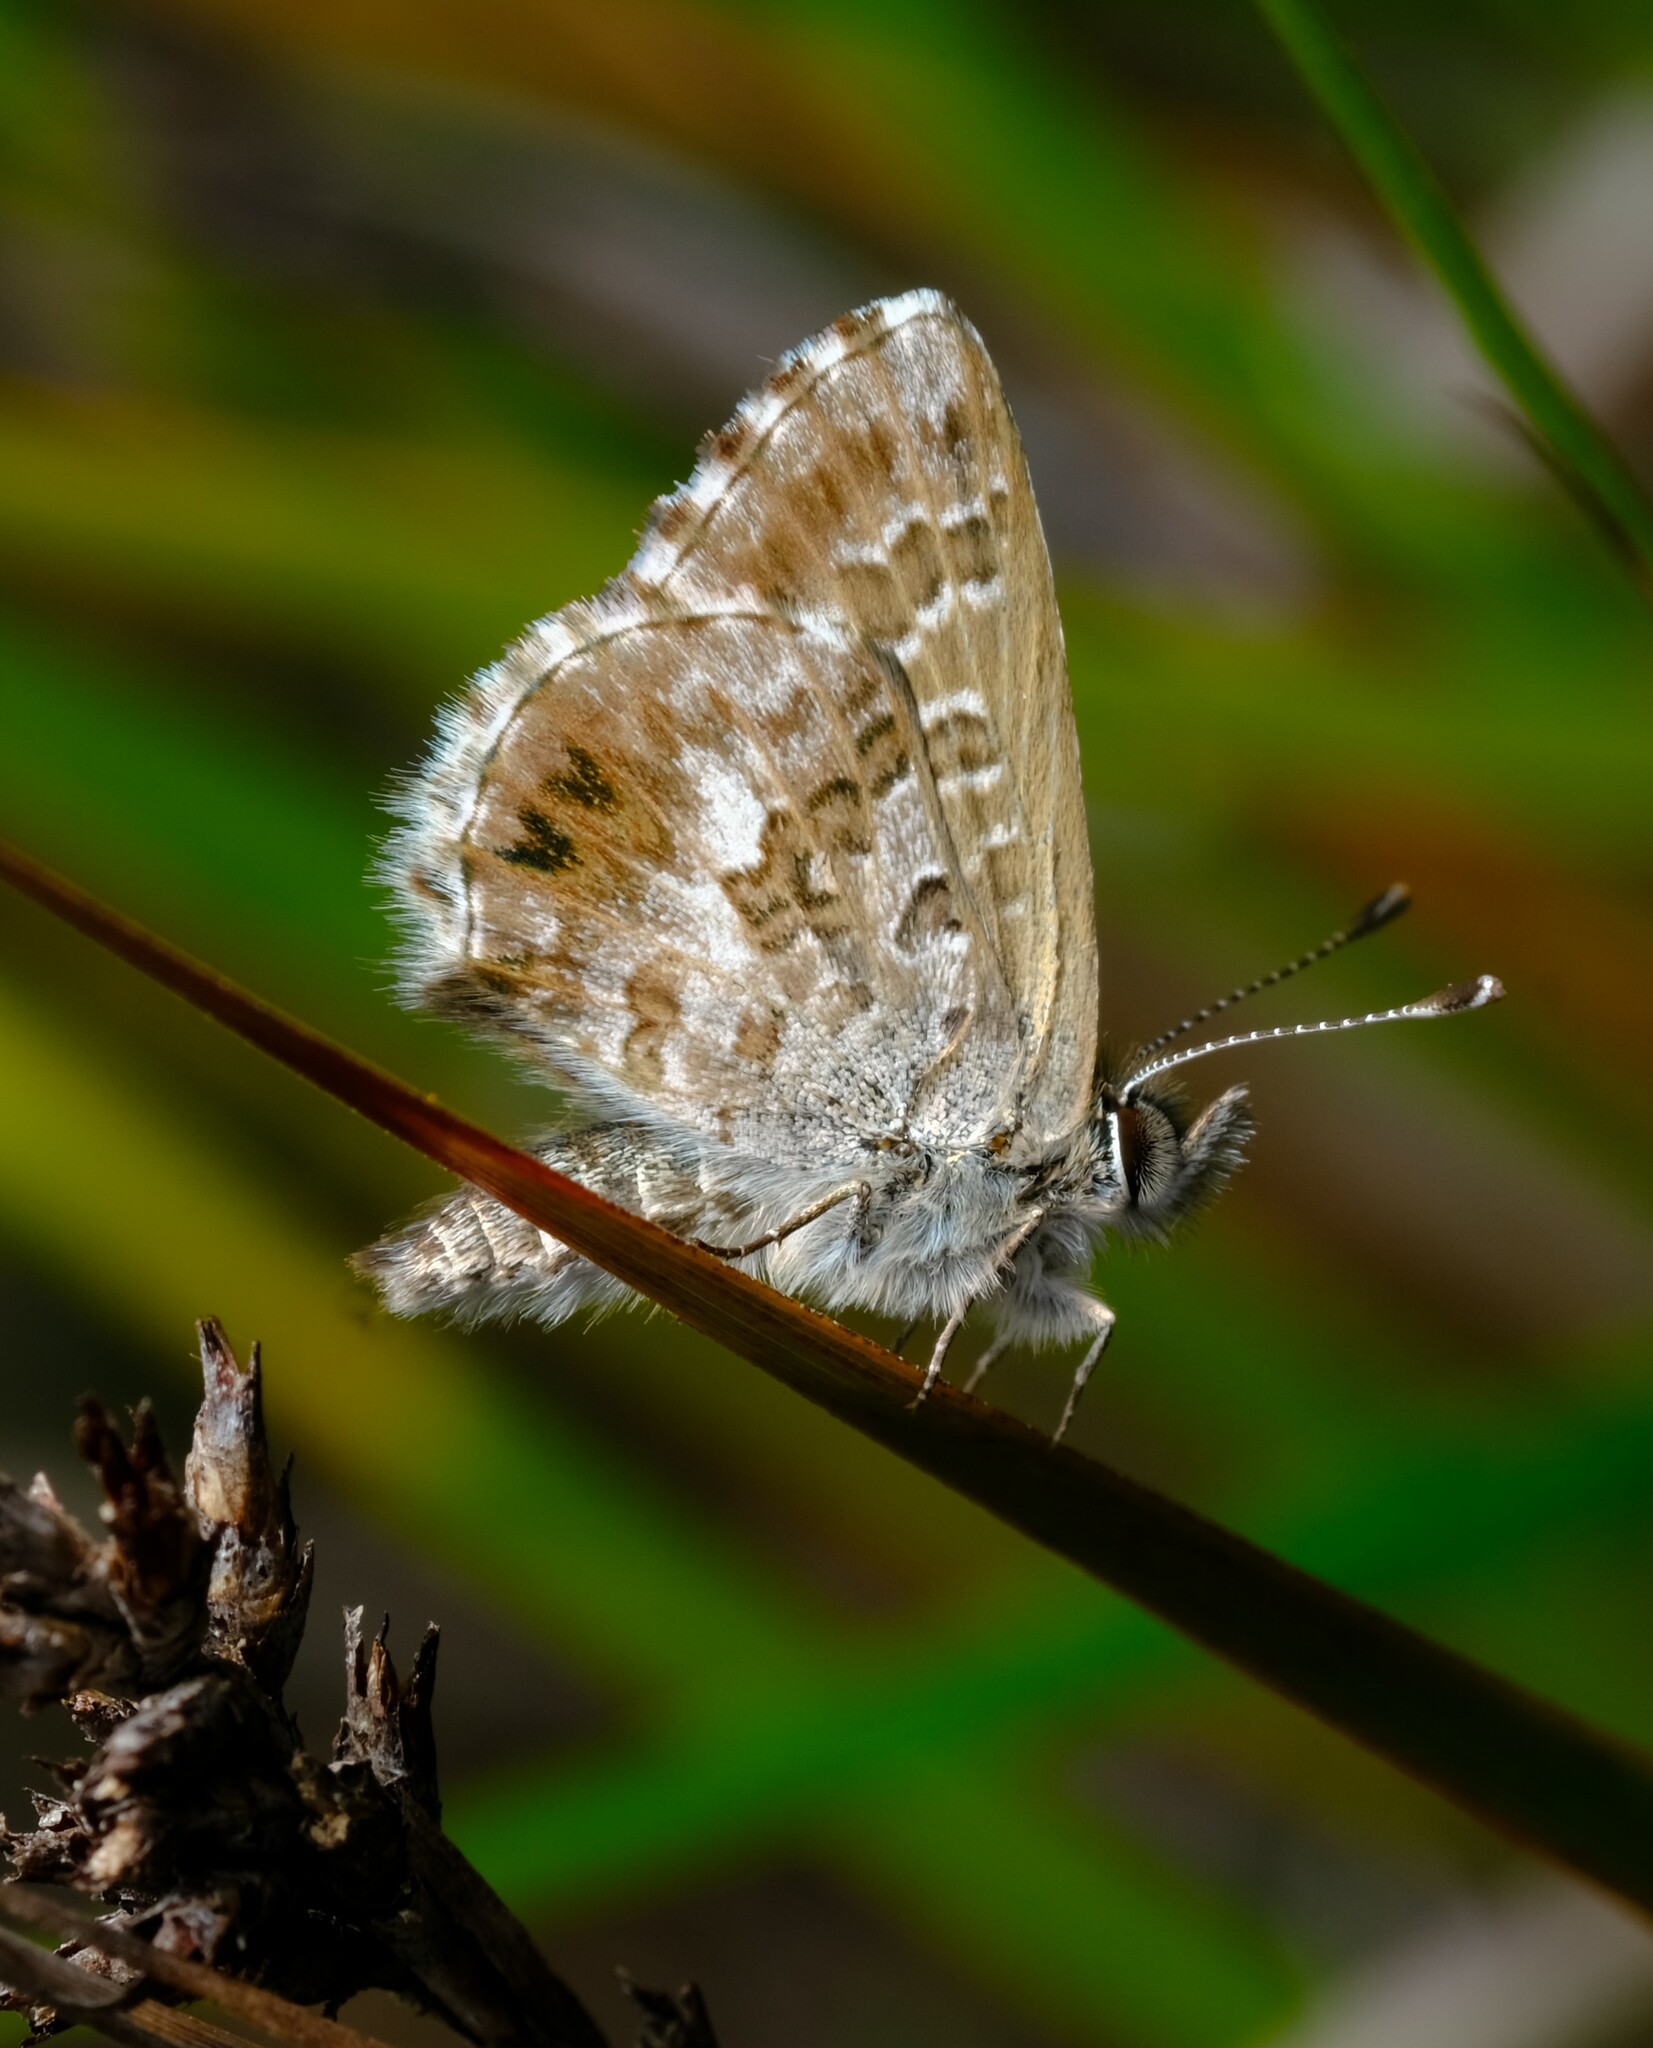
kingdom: Animalia
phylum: Arthropoda
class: Insecta
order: Lepidoptera
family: Lycaenidae
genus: Neolucia
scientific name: Neolucia agricola
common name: Fringed blue
